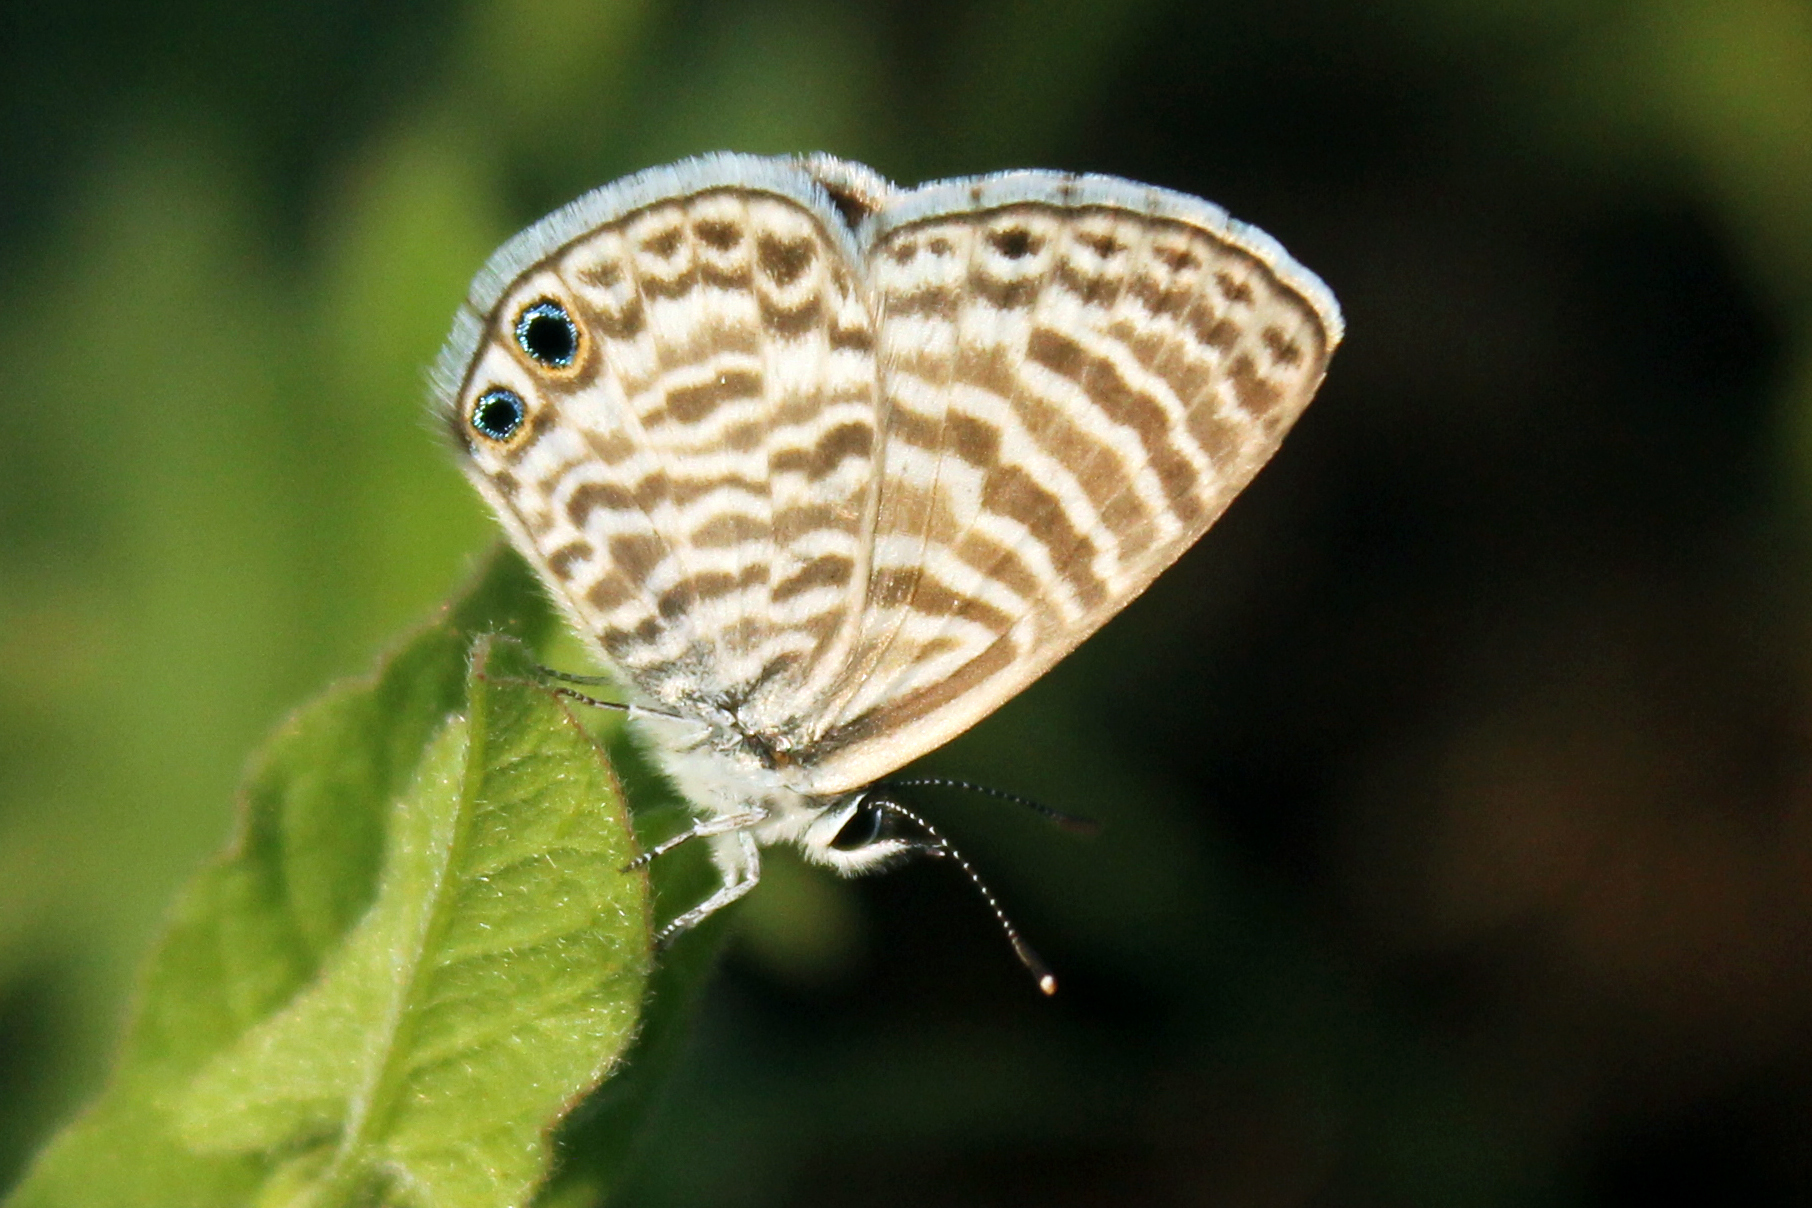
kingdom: Animalia
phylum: Arthropoda
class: Insecta
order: Lepidoptera
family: Lycaenidae
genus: Leptotes
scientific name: Leptotes marina
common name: Marine blue
